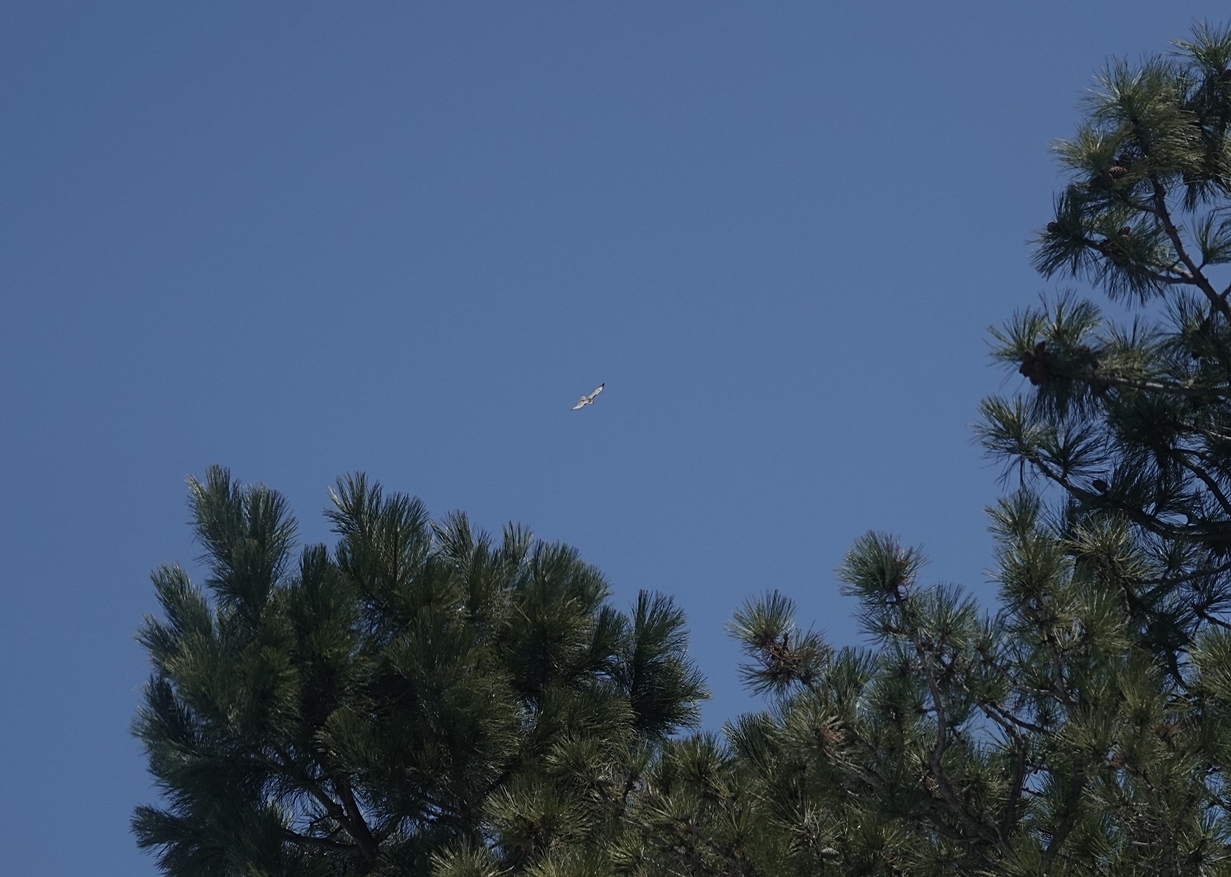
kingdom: Animalia
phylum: Chordata
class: Aves
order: Accipitriformes
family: Accipitridae
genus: Buteo
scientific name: Buteo jamaicensis
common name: Red-tailed hawk
